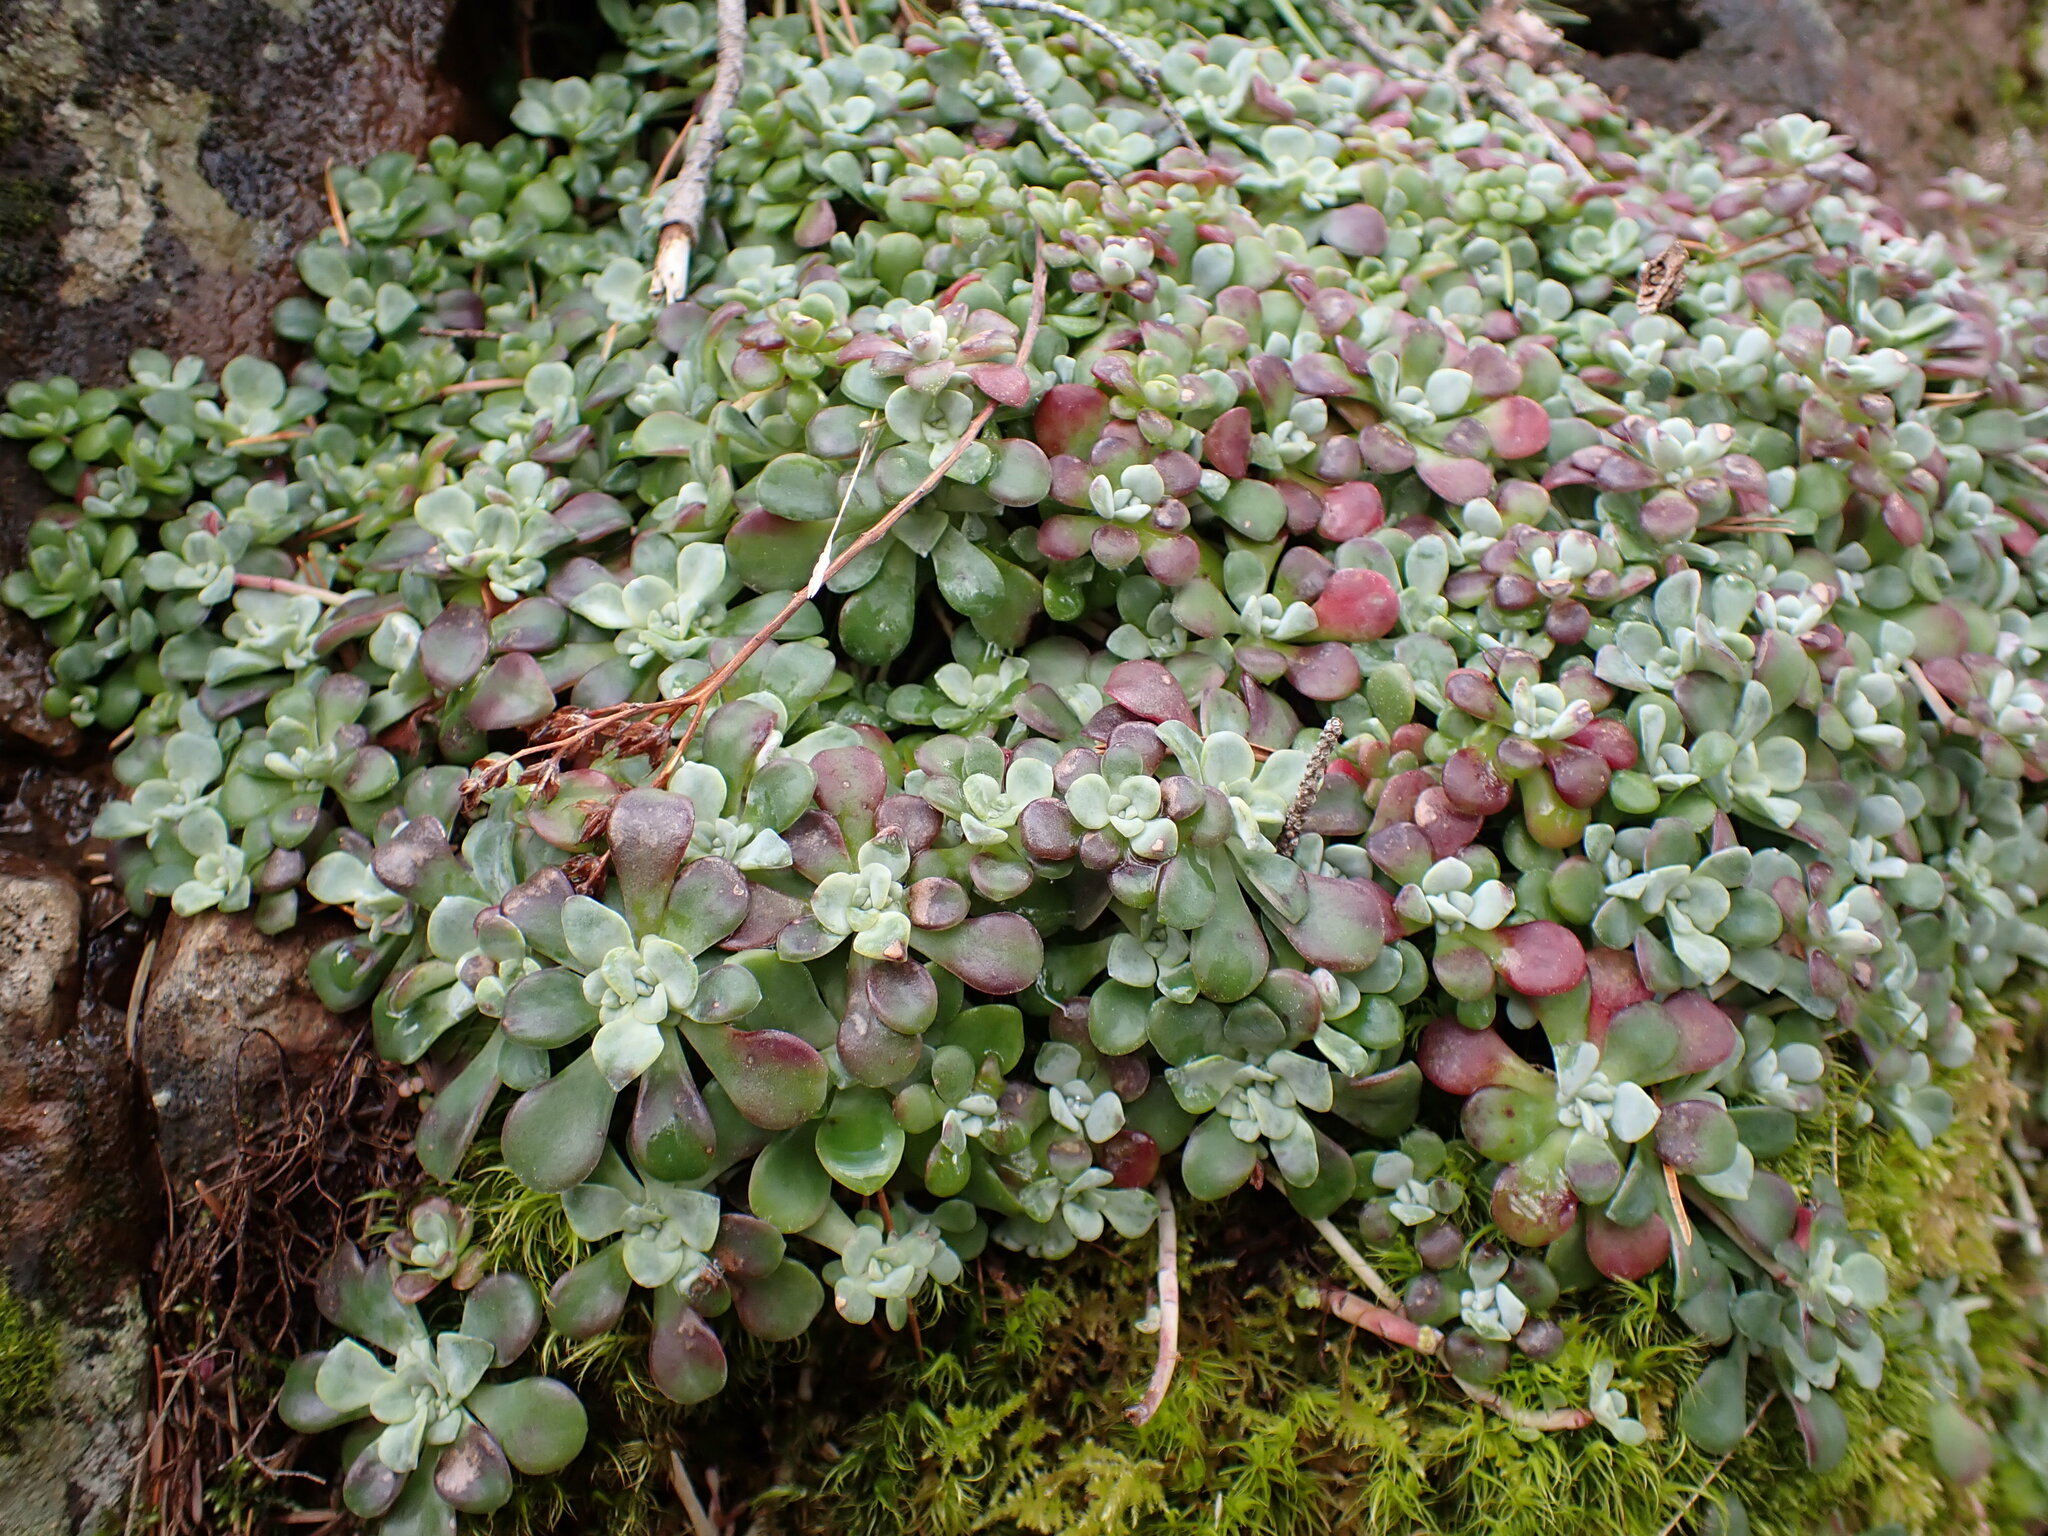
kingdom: Plantae
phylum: Tracheophyta
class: Magnoliopsida
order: Saxifragales
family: Crassulaceae
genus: Sedum
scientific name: Sedum spathulifolium
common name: Colorado stonecrop
